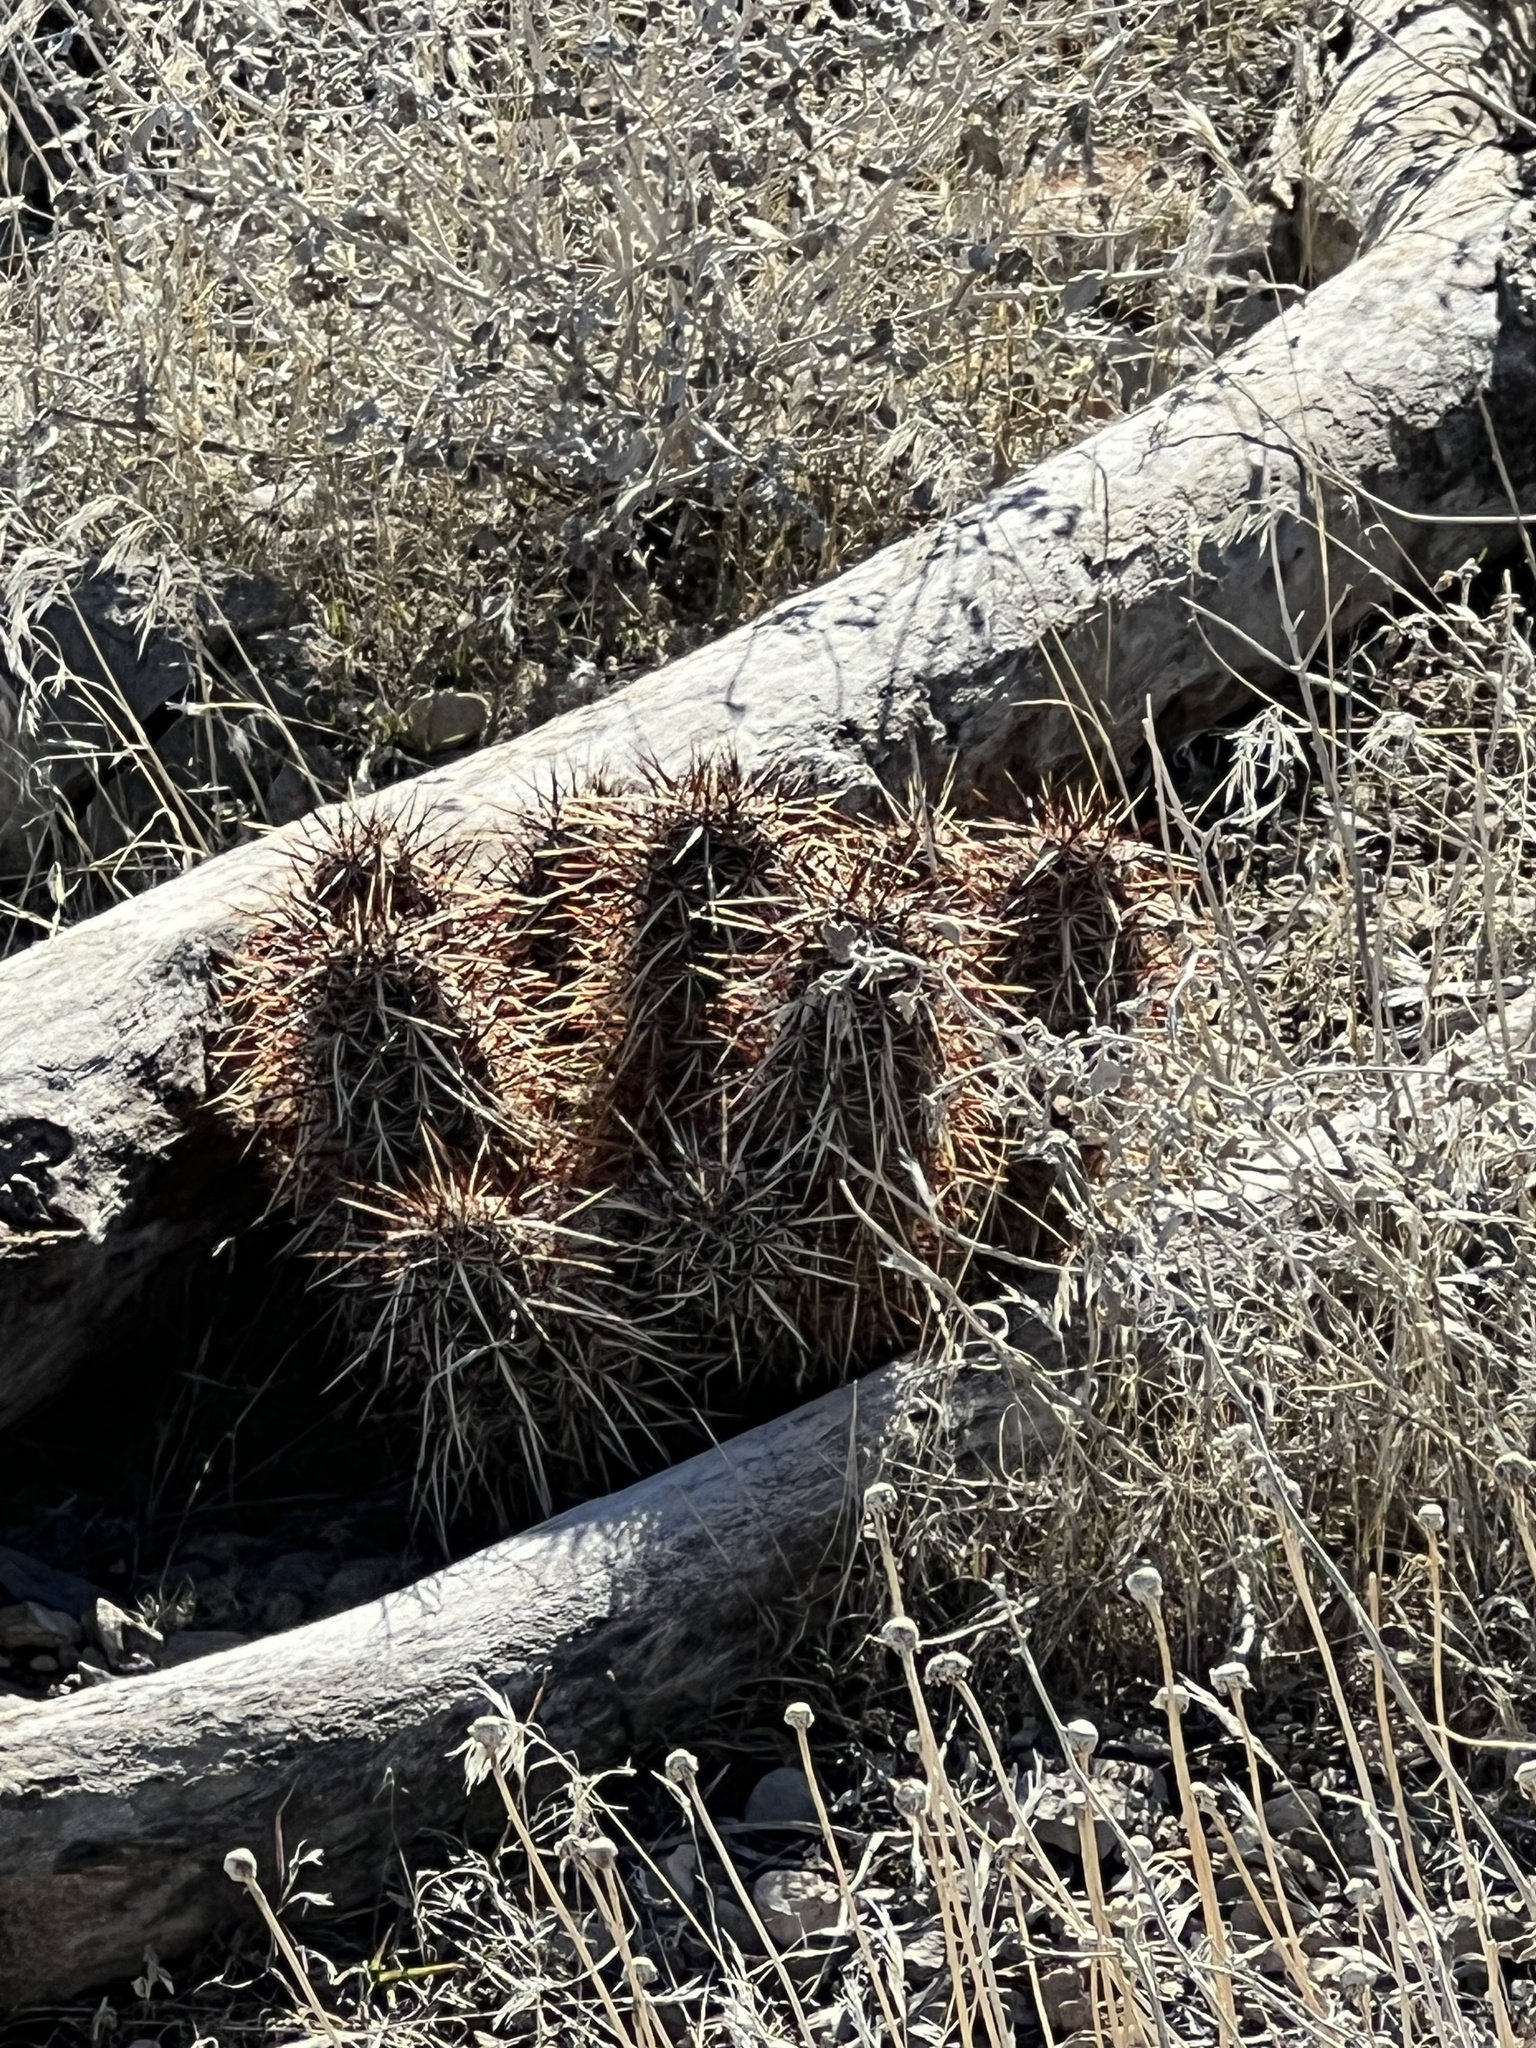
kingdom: Plantae
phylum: Tracheophyta
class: Magnoliopsida
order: Caryophyllales
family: Cactaceae
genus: Echinocereus
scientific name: Echinocereus engelmannii
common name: Engelmann's hedgehog cactus
